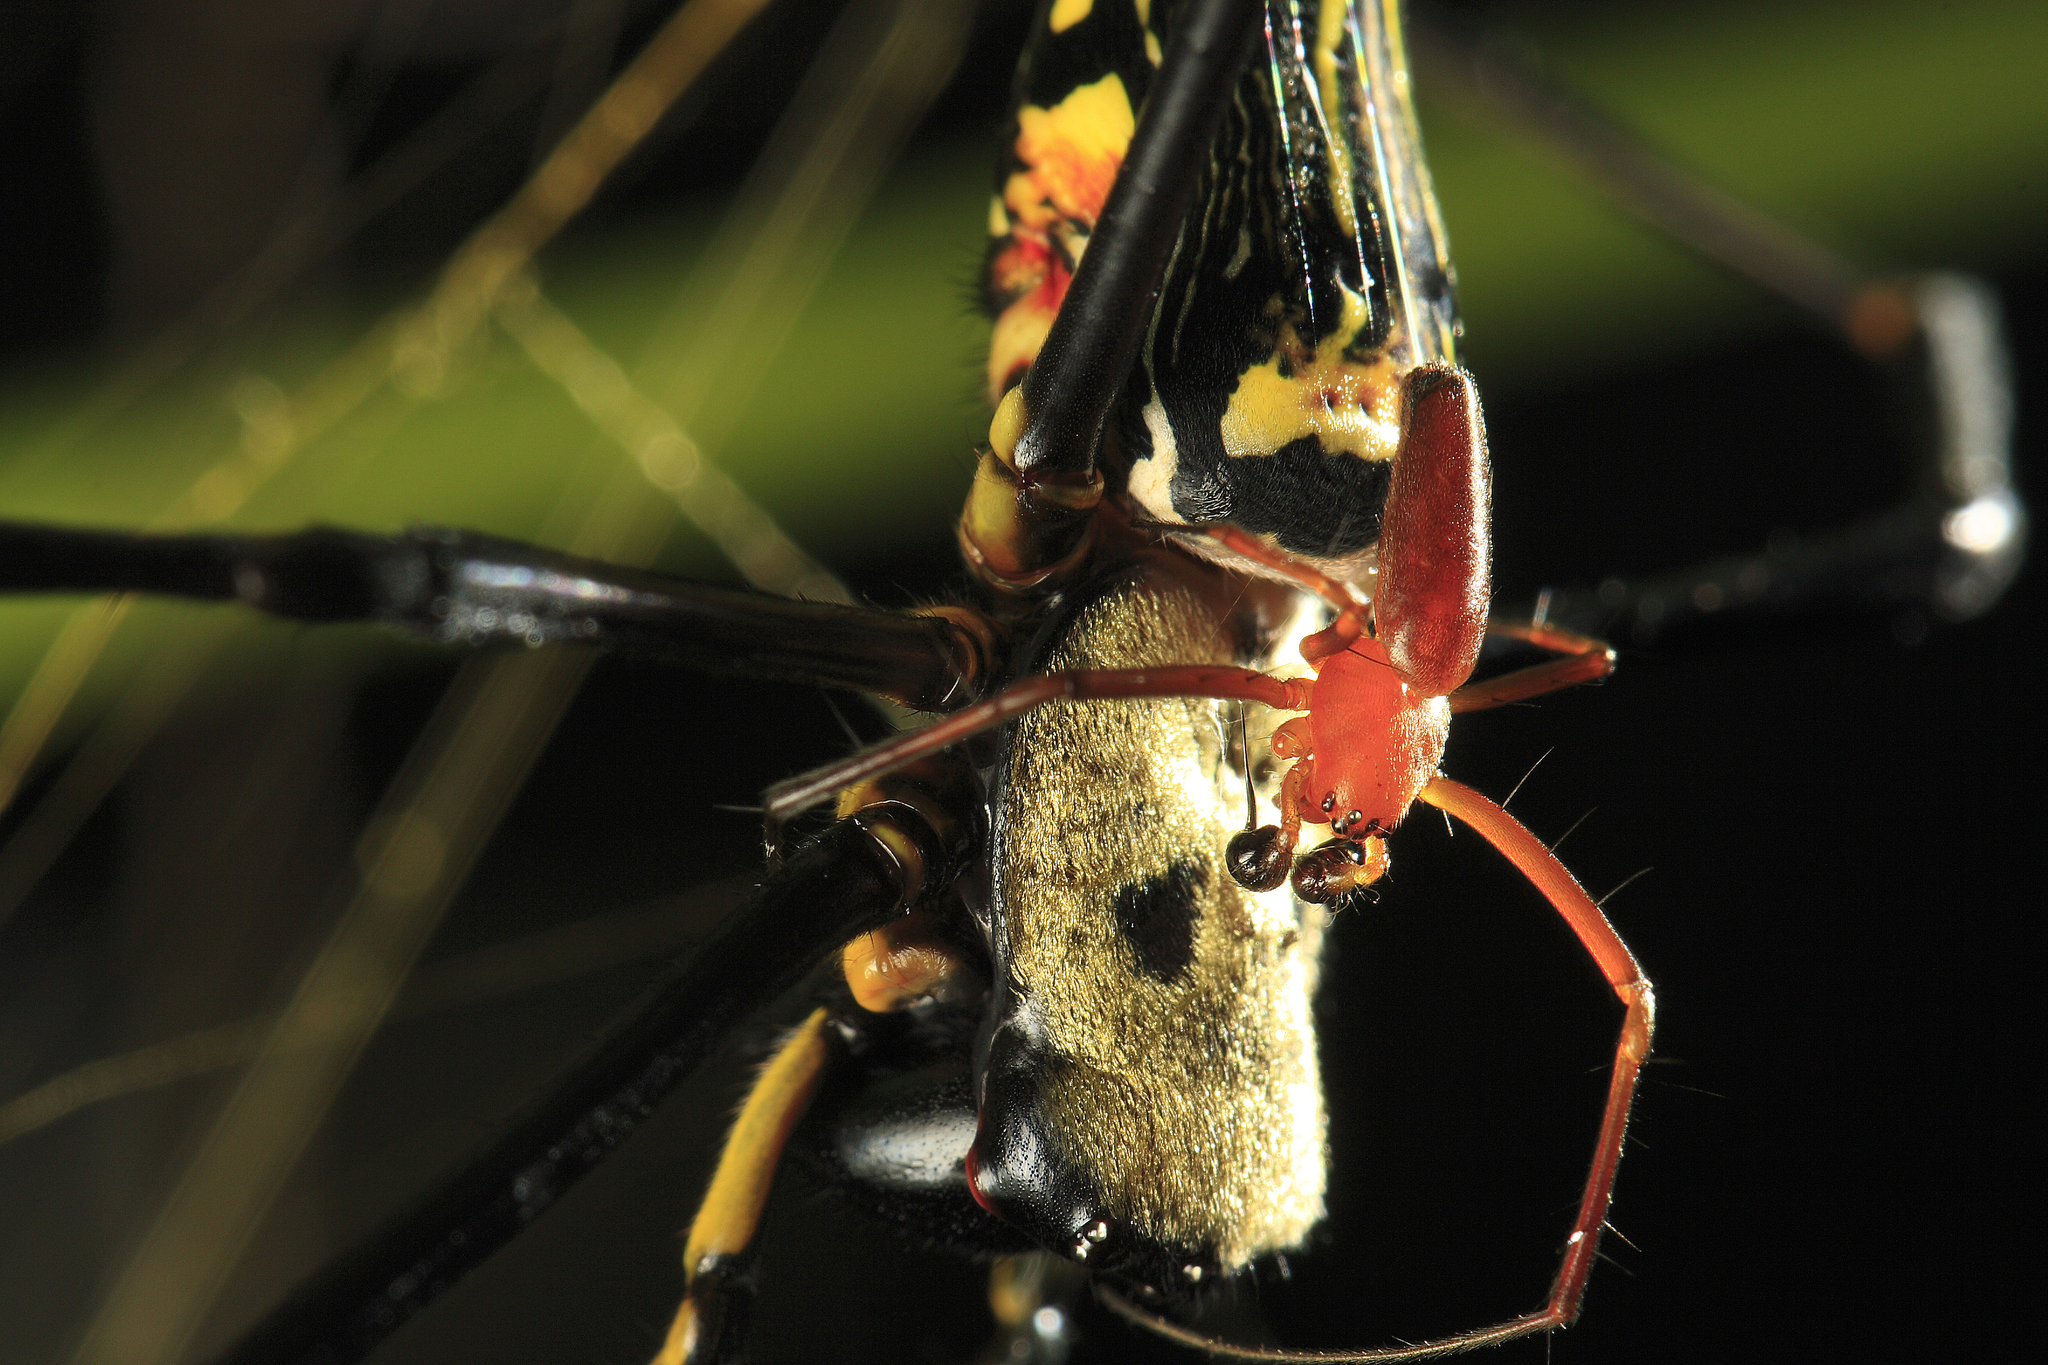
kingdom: Animalia
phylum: Arthropoda
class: Arachnida
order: Araneae
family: Araneidae
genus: Nephila
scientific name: Nephila pilipes
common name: Giant golden orb weaver
